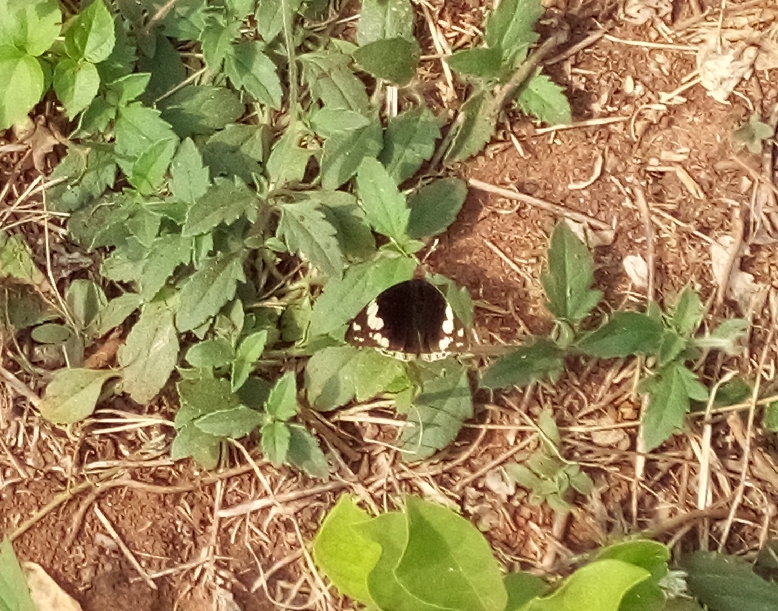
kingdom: Animalia
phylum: Arthropoda
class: Insecta
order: Lepidoptera
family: Nymphalidae
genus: Junonia
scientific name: Junonia oenone
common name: Dark blue pansy
